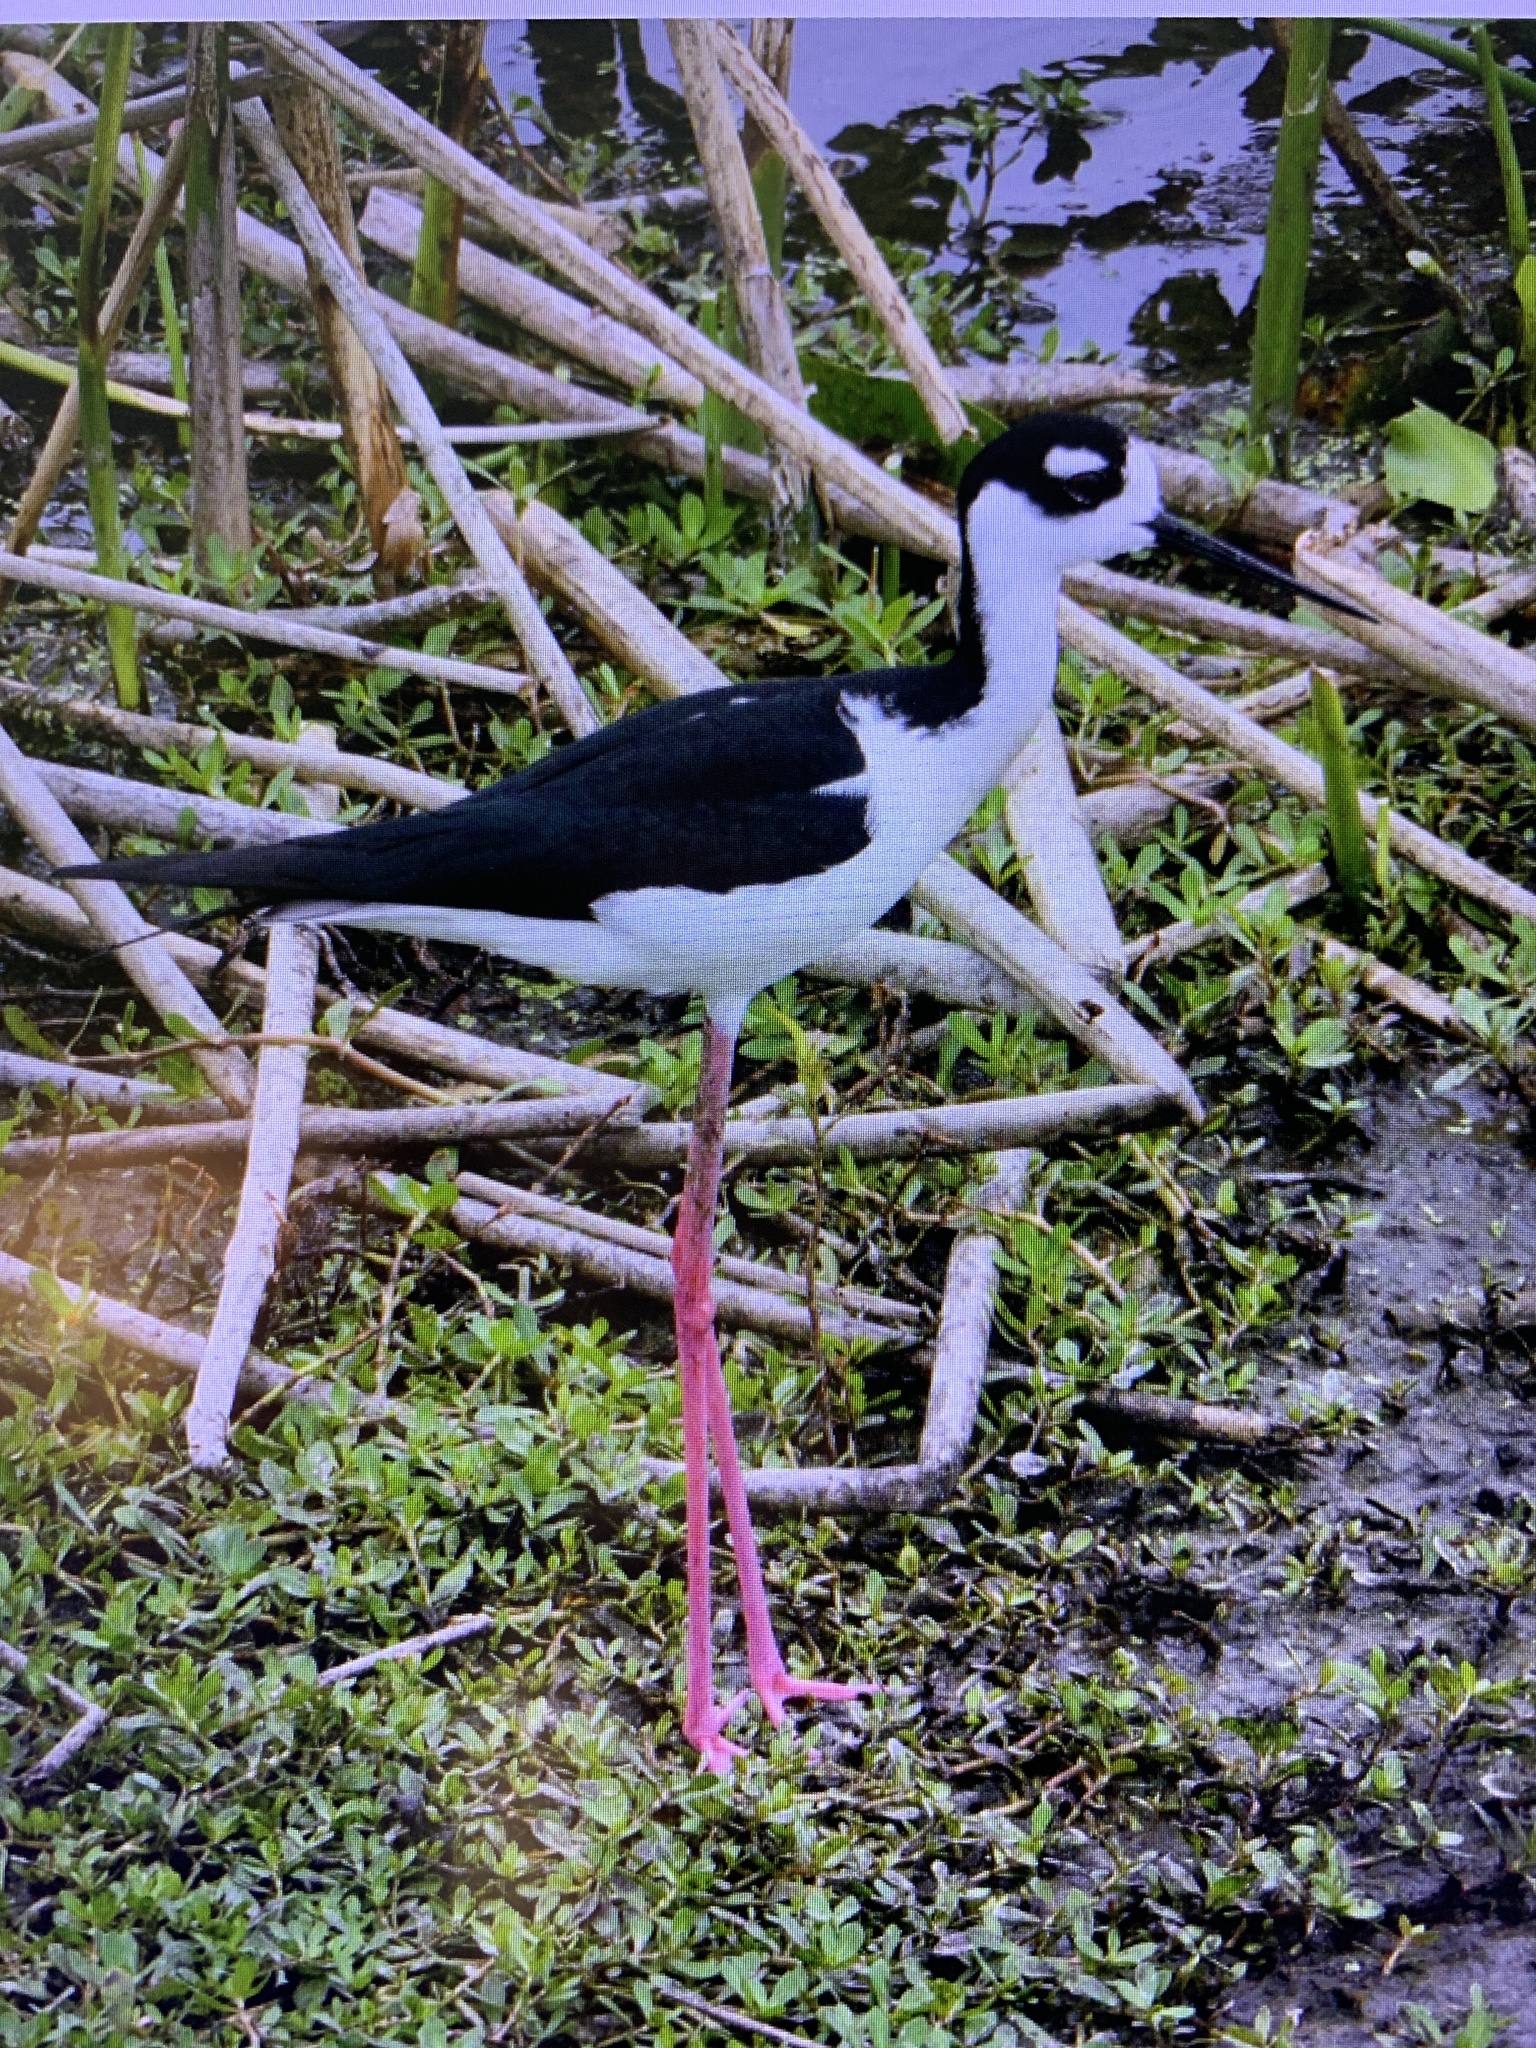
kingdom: Animalia
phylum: Chordata
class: Aves
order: Charadriiformes
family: Recurvirostridae
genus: Himantopus
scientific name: Himantopus mexicanus
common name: Black-necked stilt
